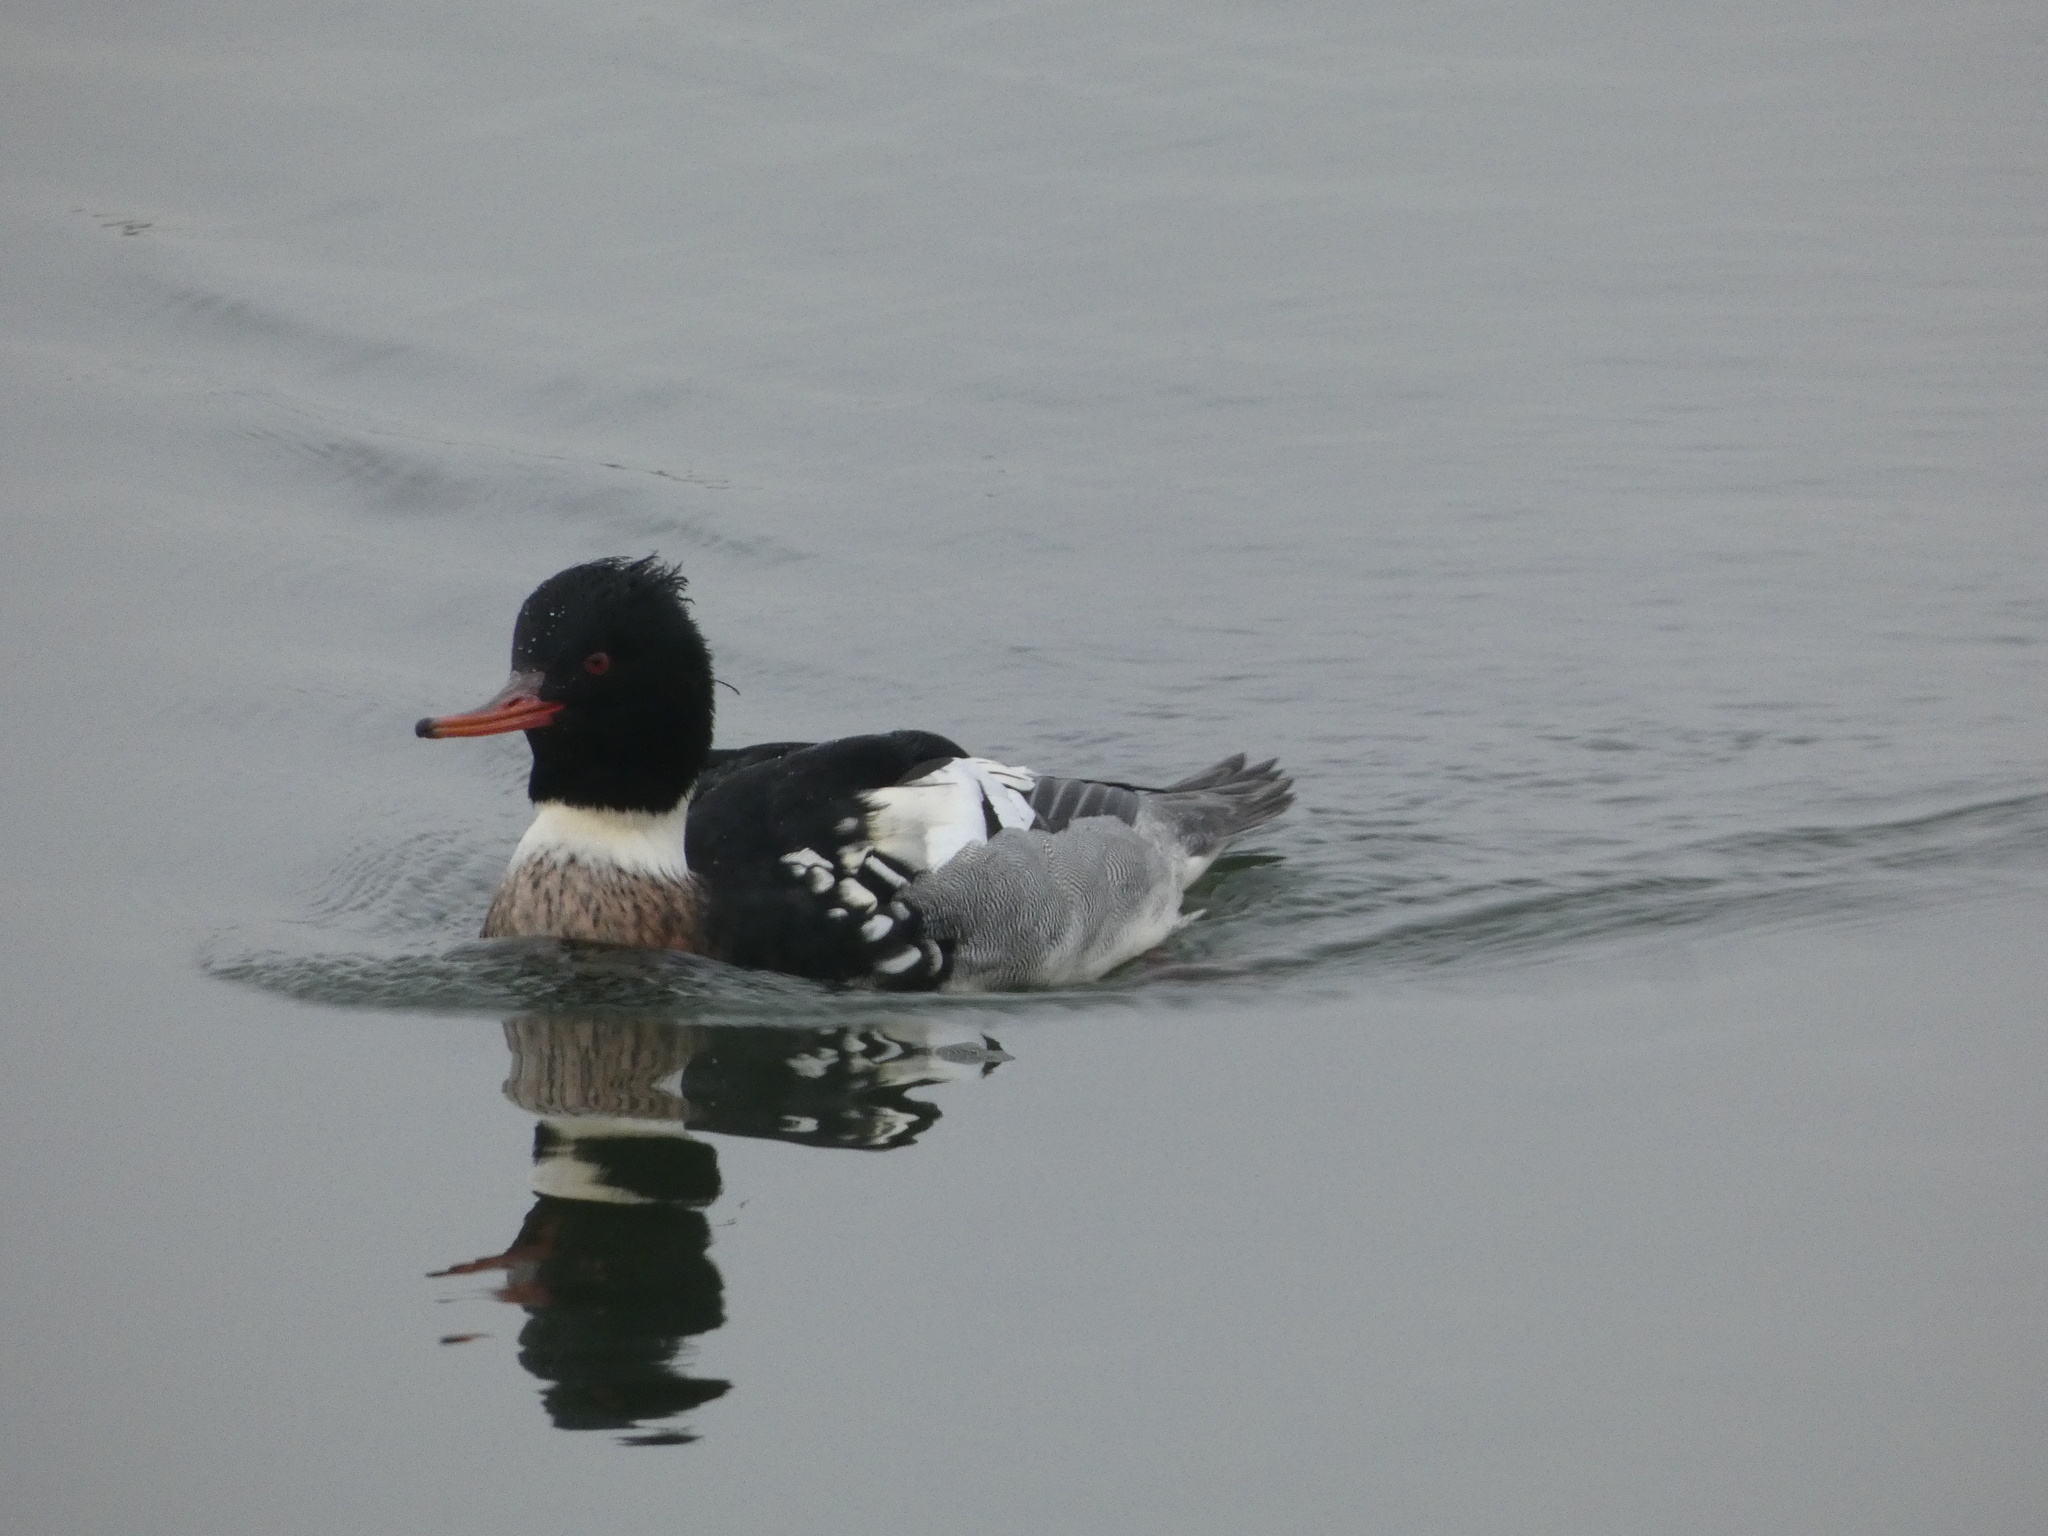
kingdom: Animalia
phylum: Chordata
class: Aves
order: Anseriformes
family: Anatidae
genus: Mergus
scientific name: Mergus serrator
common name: Red-breasted merganser
